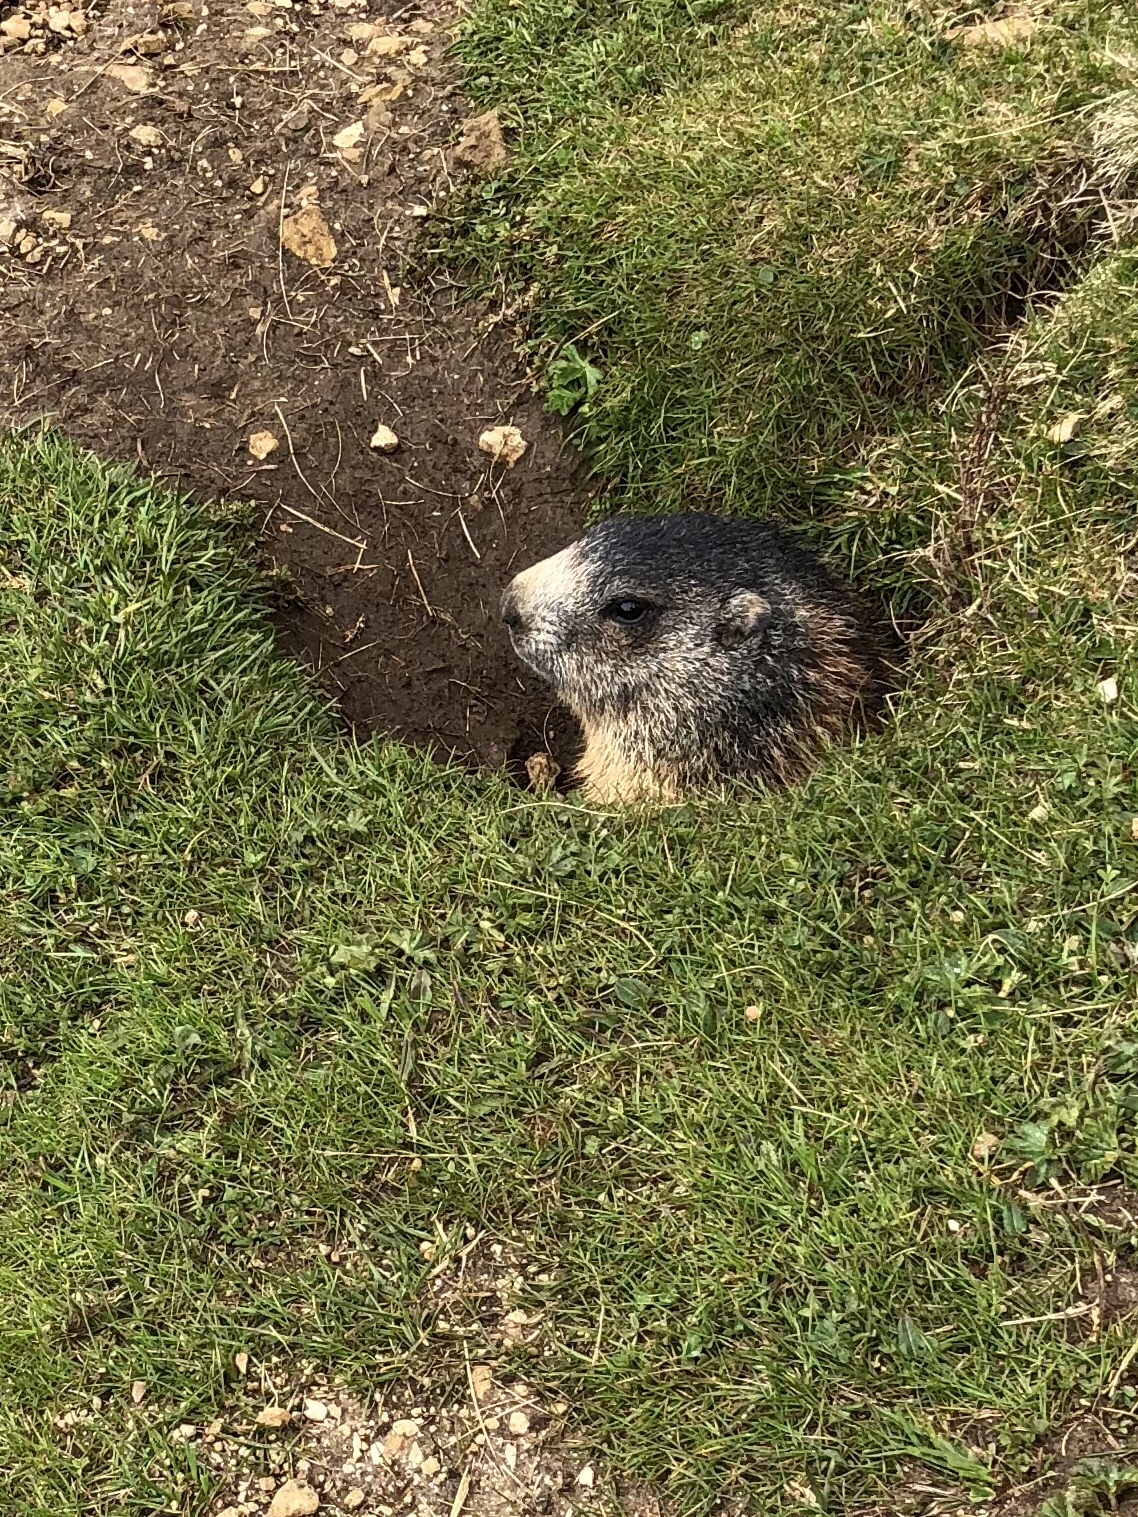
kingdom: Animalia
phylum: Chordata
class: Mammalia
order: Rodentia
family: Sciuridae
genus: Marmota
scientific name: Marmota marmota
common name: Alpine marmot
